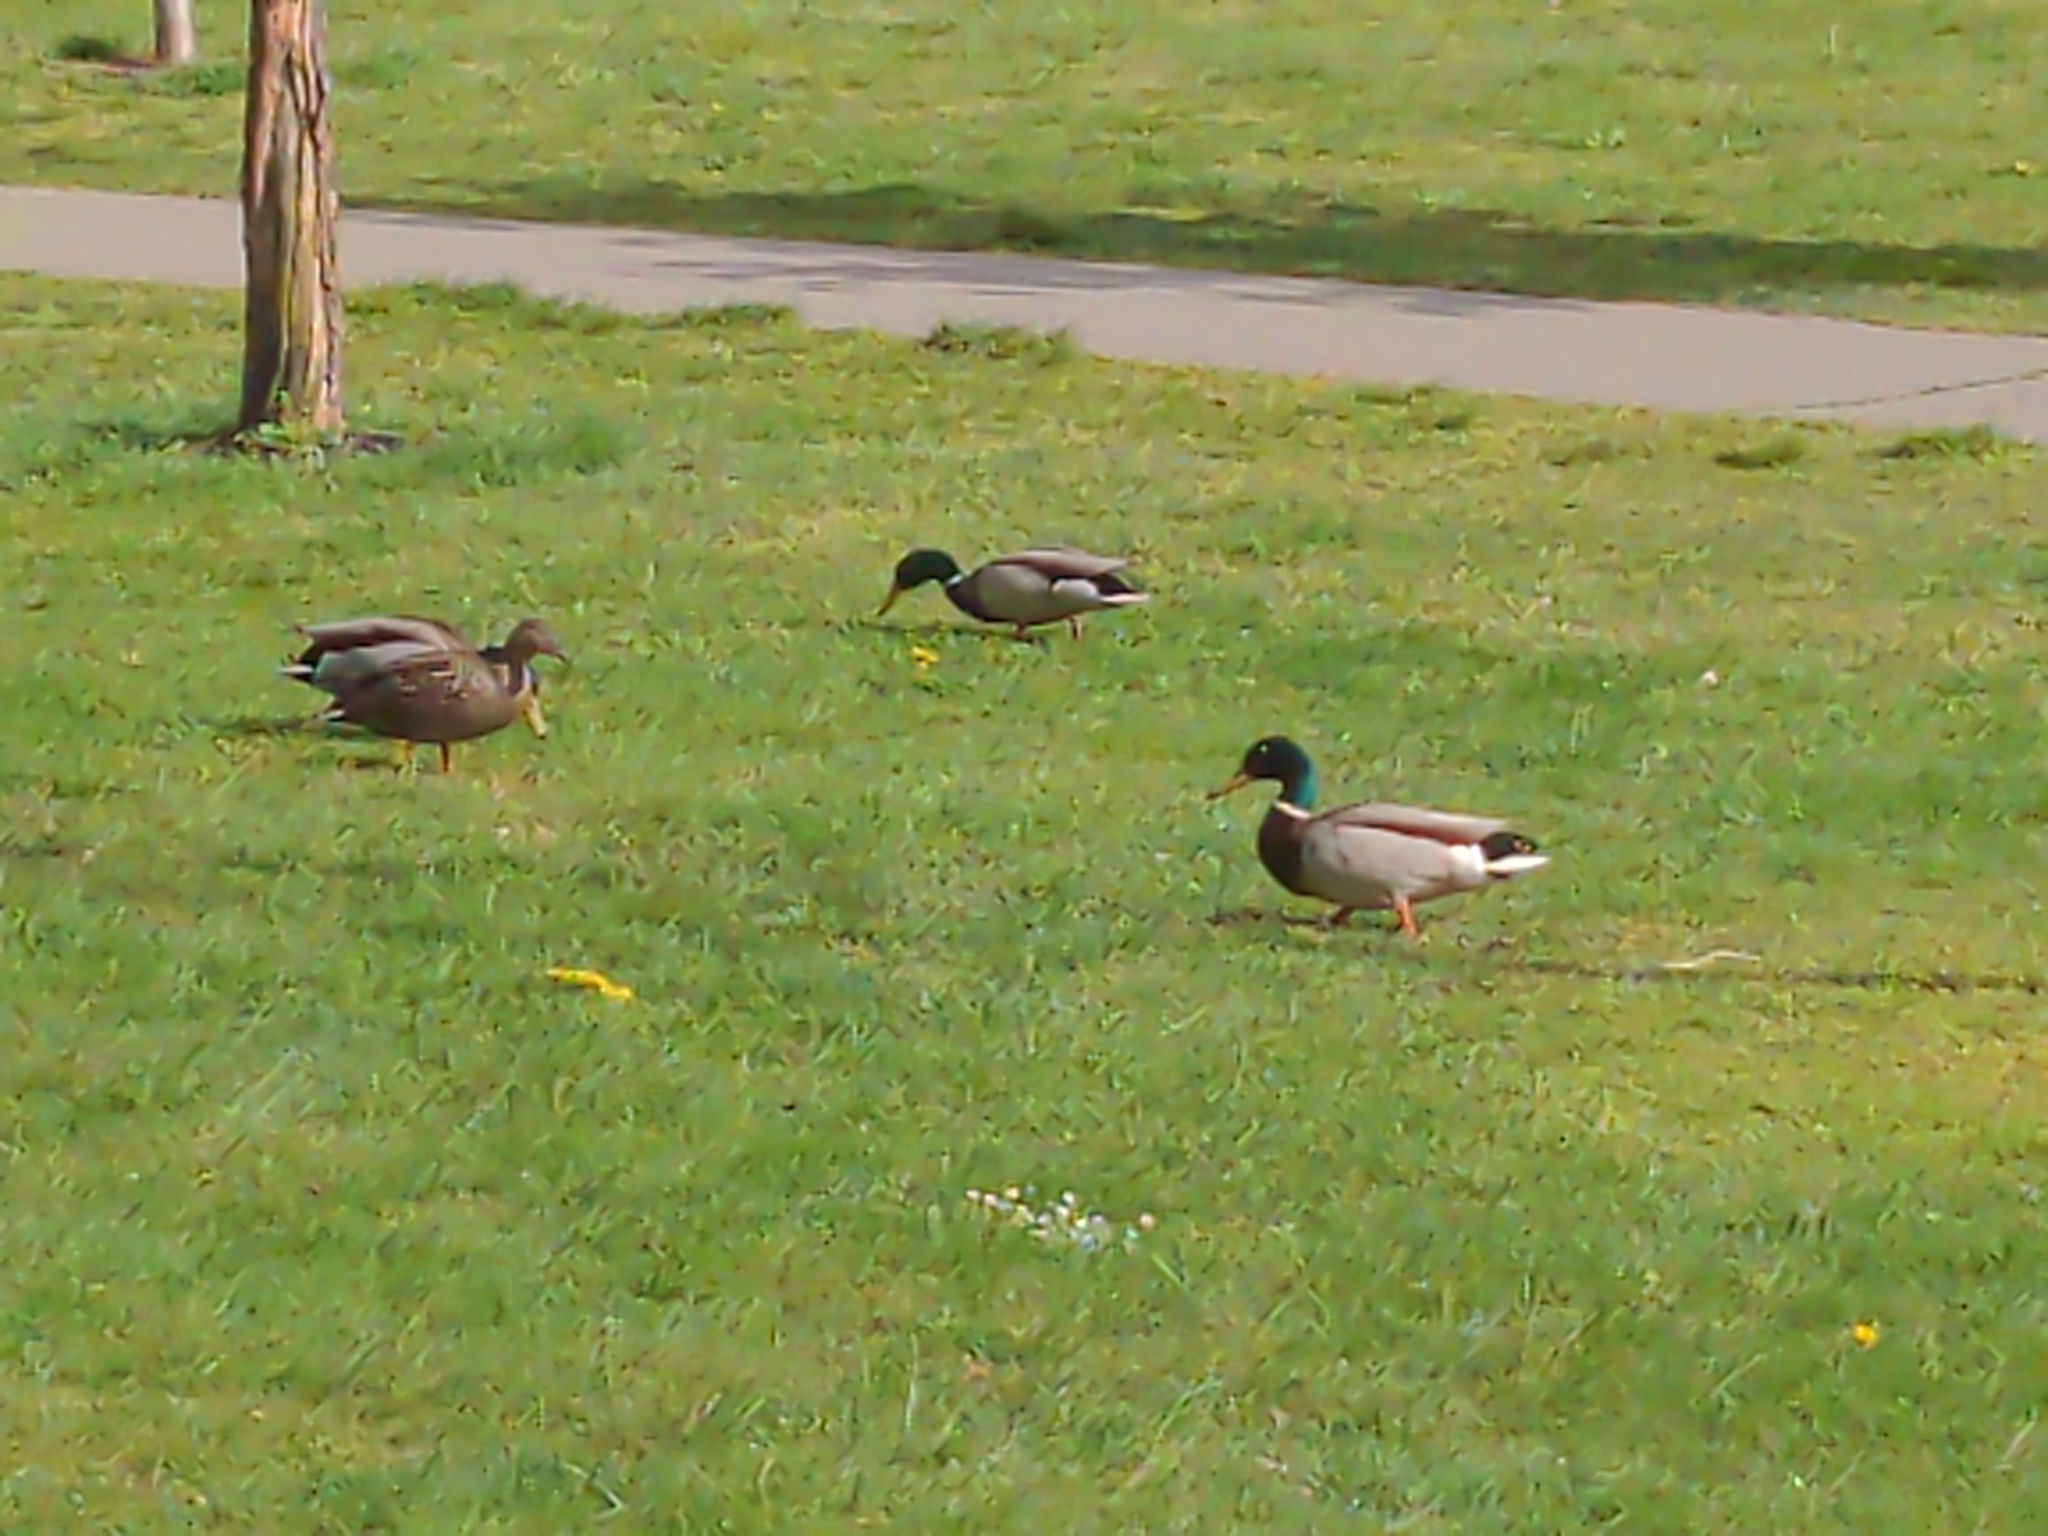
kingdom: Animalia
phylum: Chordata
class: Aves
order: Anseriformes
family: Anatidae
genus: Anas
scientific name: Anas platyrhynchos
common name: Mallard
